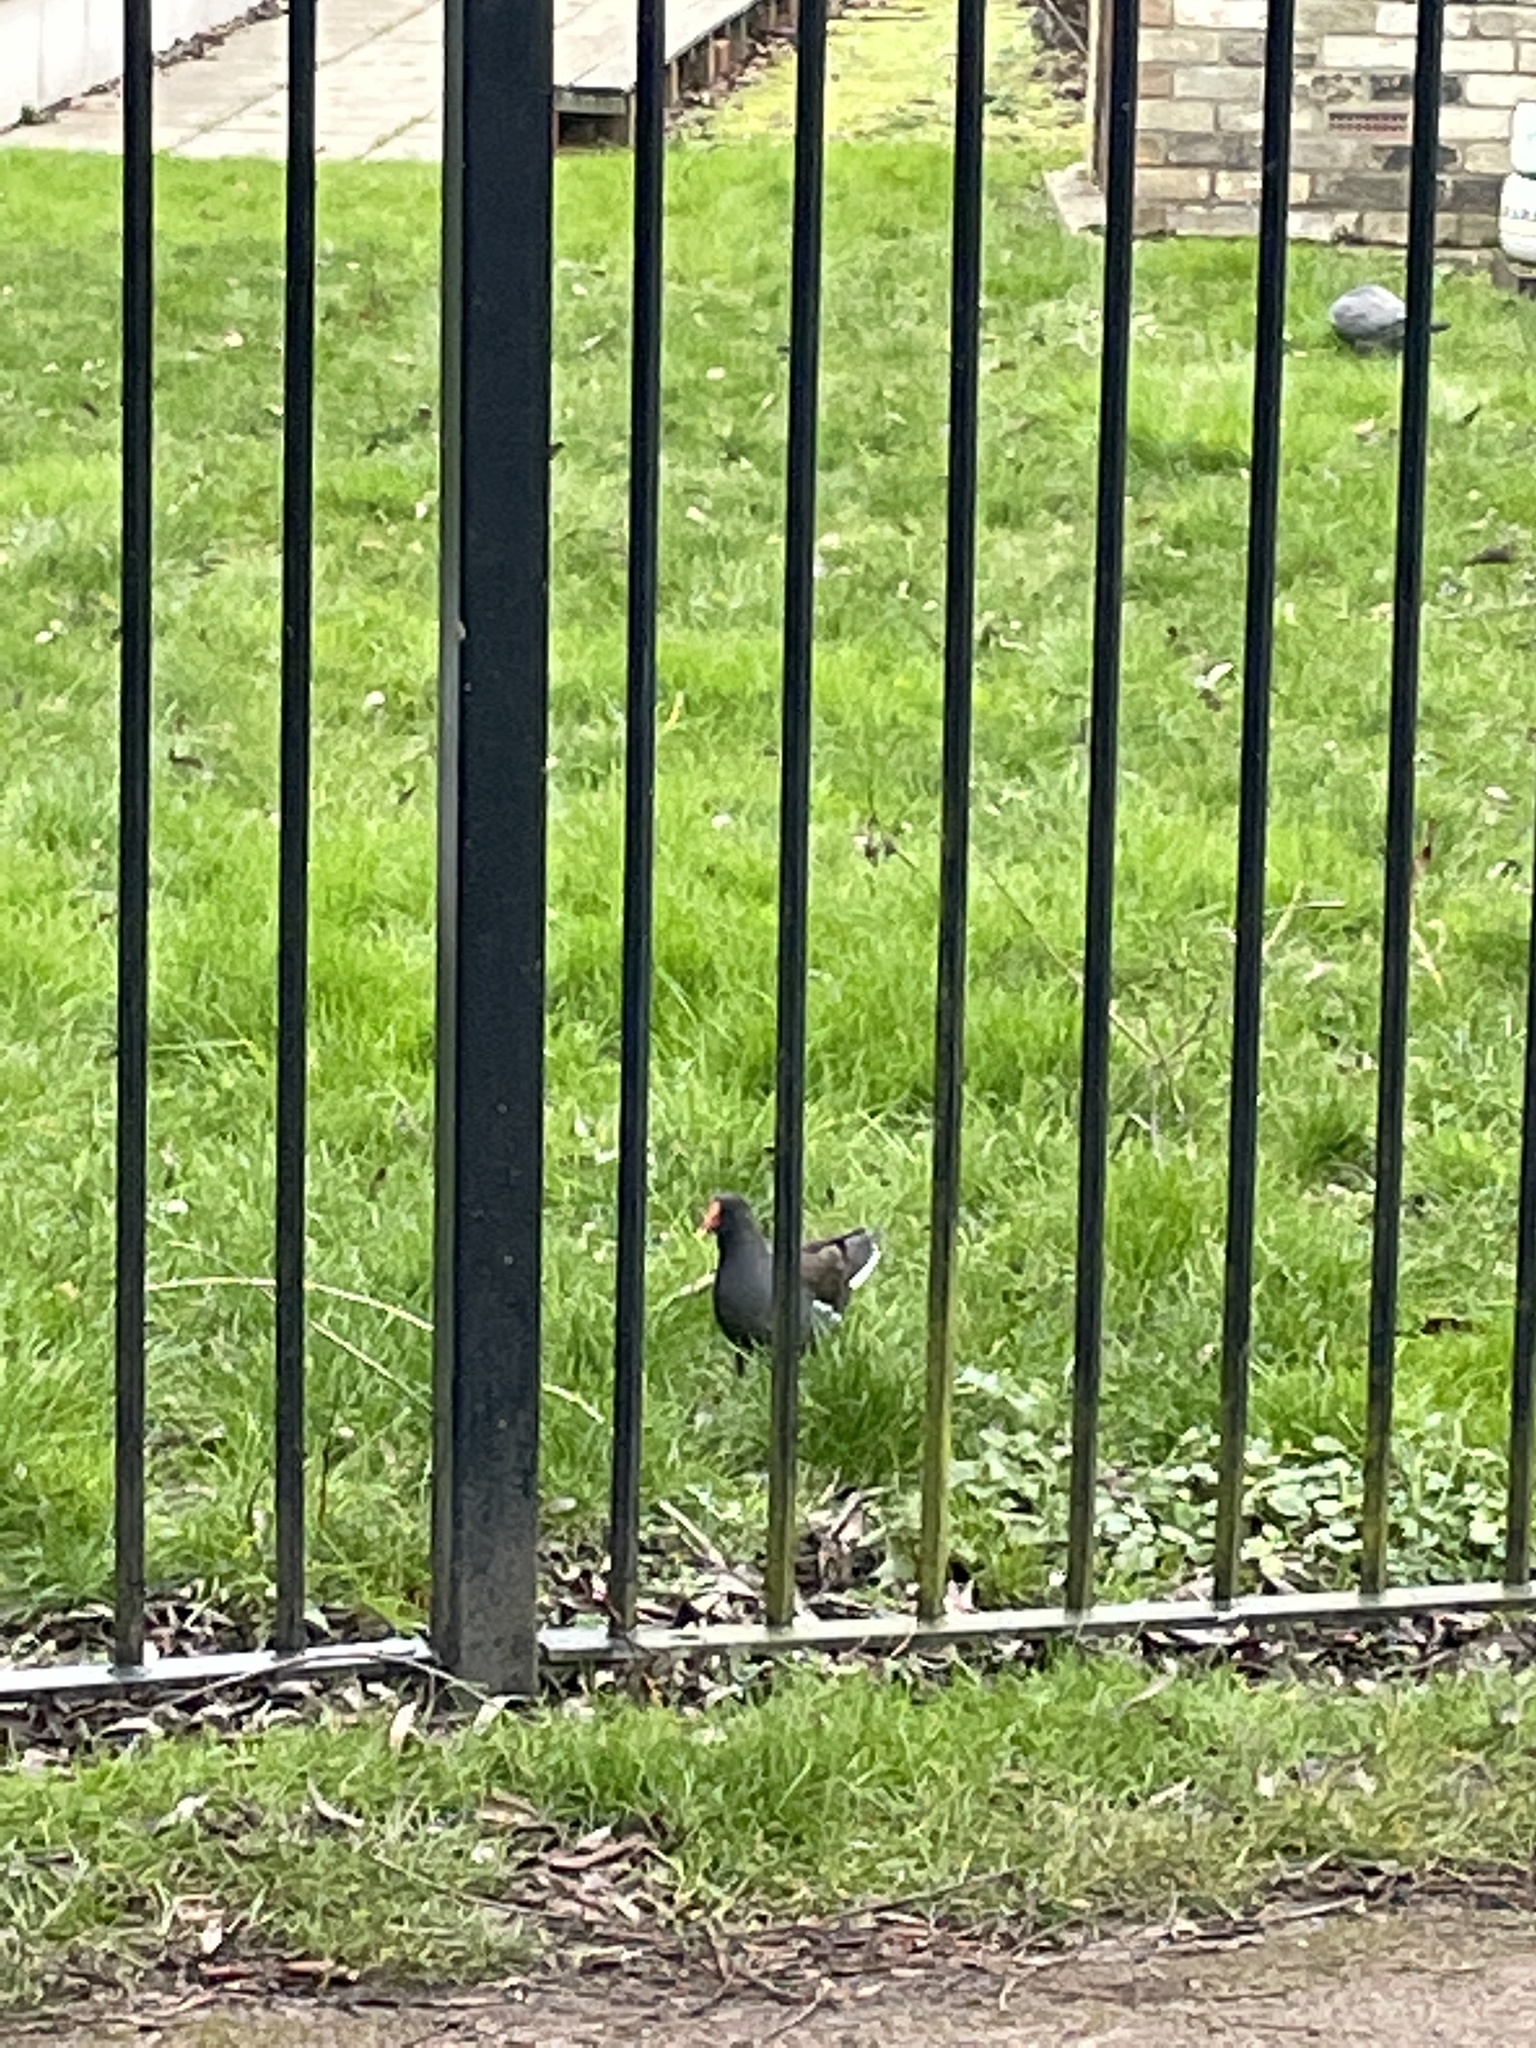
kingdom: Animalia
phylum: Chordata
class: Aves
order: Gruiformes
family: Rallidae
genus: Gallinula
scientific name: Gallinula chloropus
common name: Common moorhen
